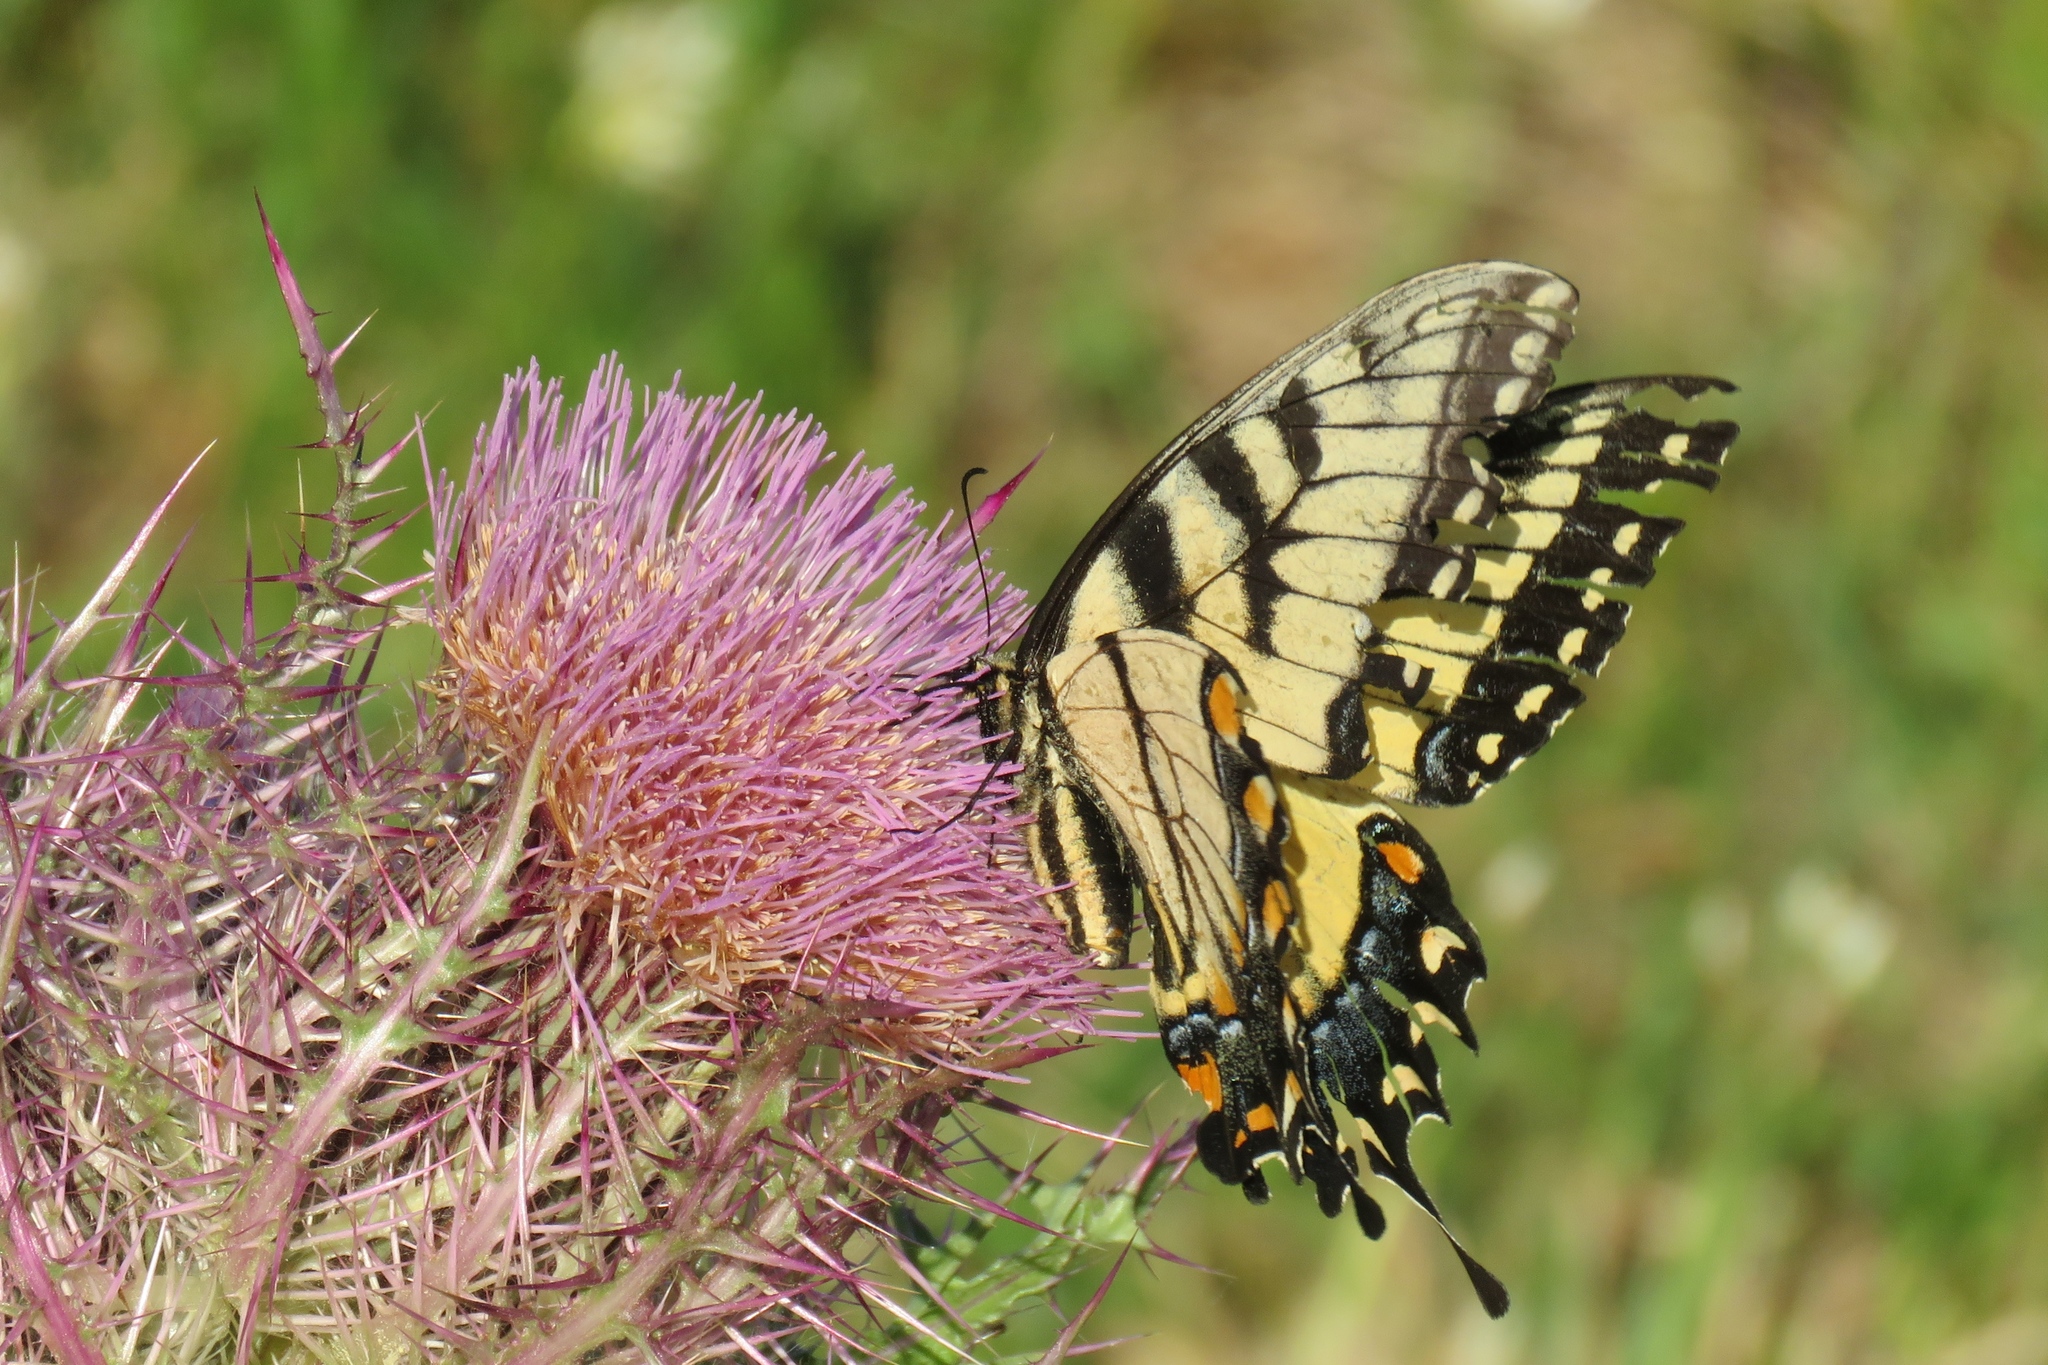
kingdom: Animalia
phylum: Arthropoda
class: Insecta
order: Lepidoptera
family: Papilionidae
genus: Papilio
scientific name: Papilio glaucus
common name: Tiger swallowtail
